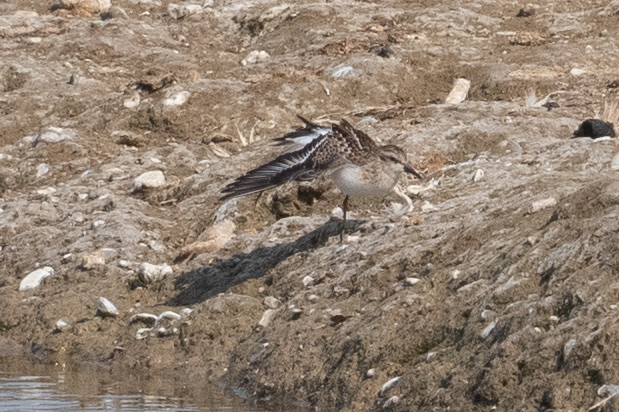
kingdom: Animalia
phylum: Chordata
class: Aves
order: Charadriiformes
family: Scolopacidae
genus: Calidris
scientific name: Calidris minutilla
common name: Least sandpiper
